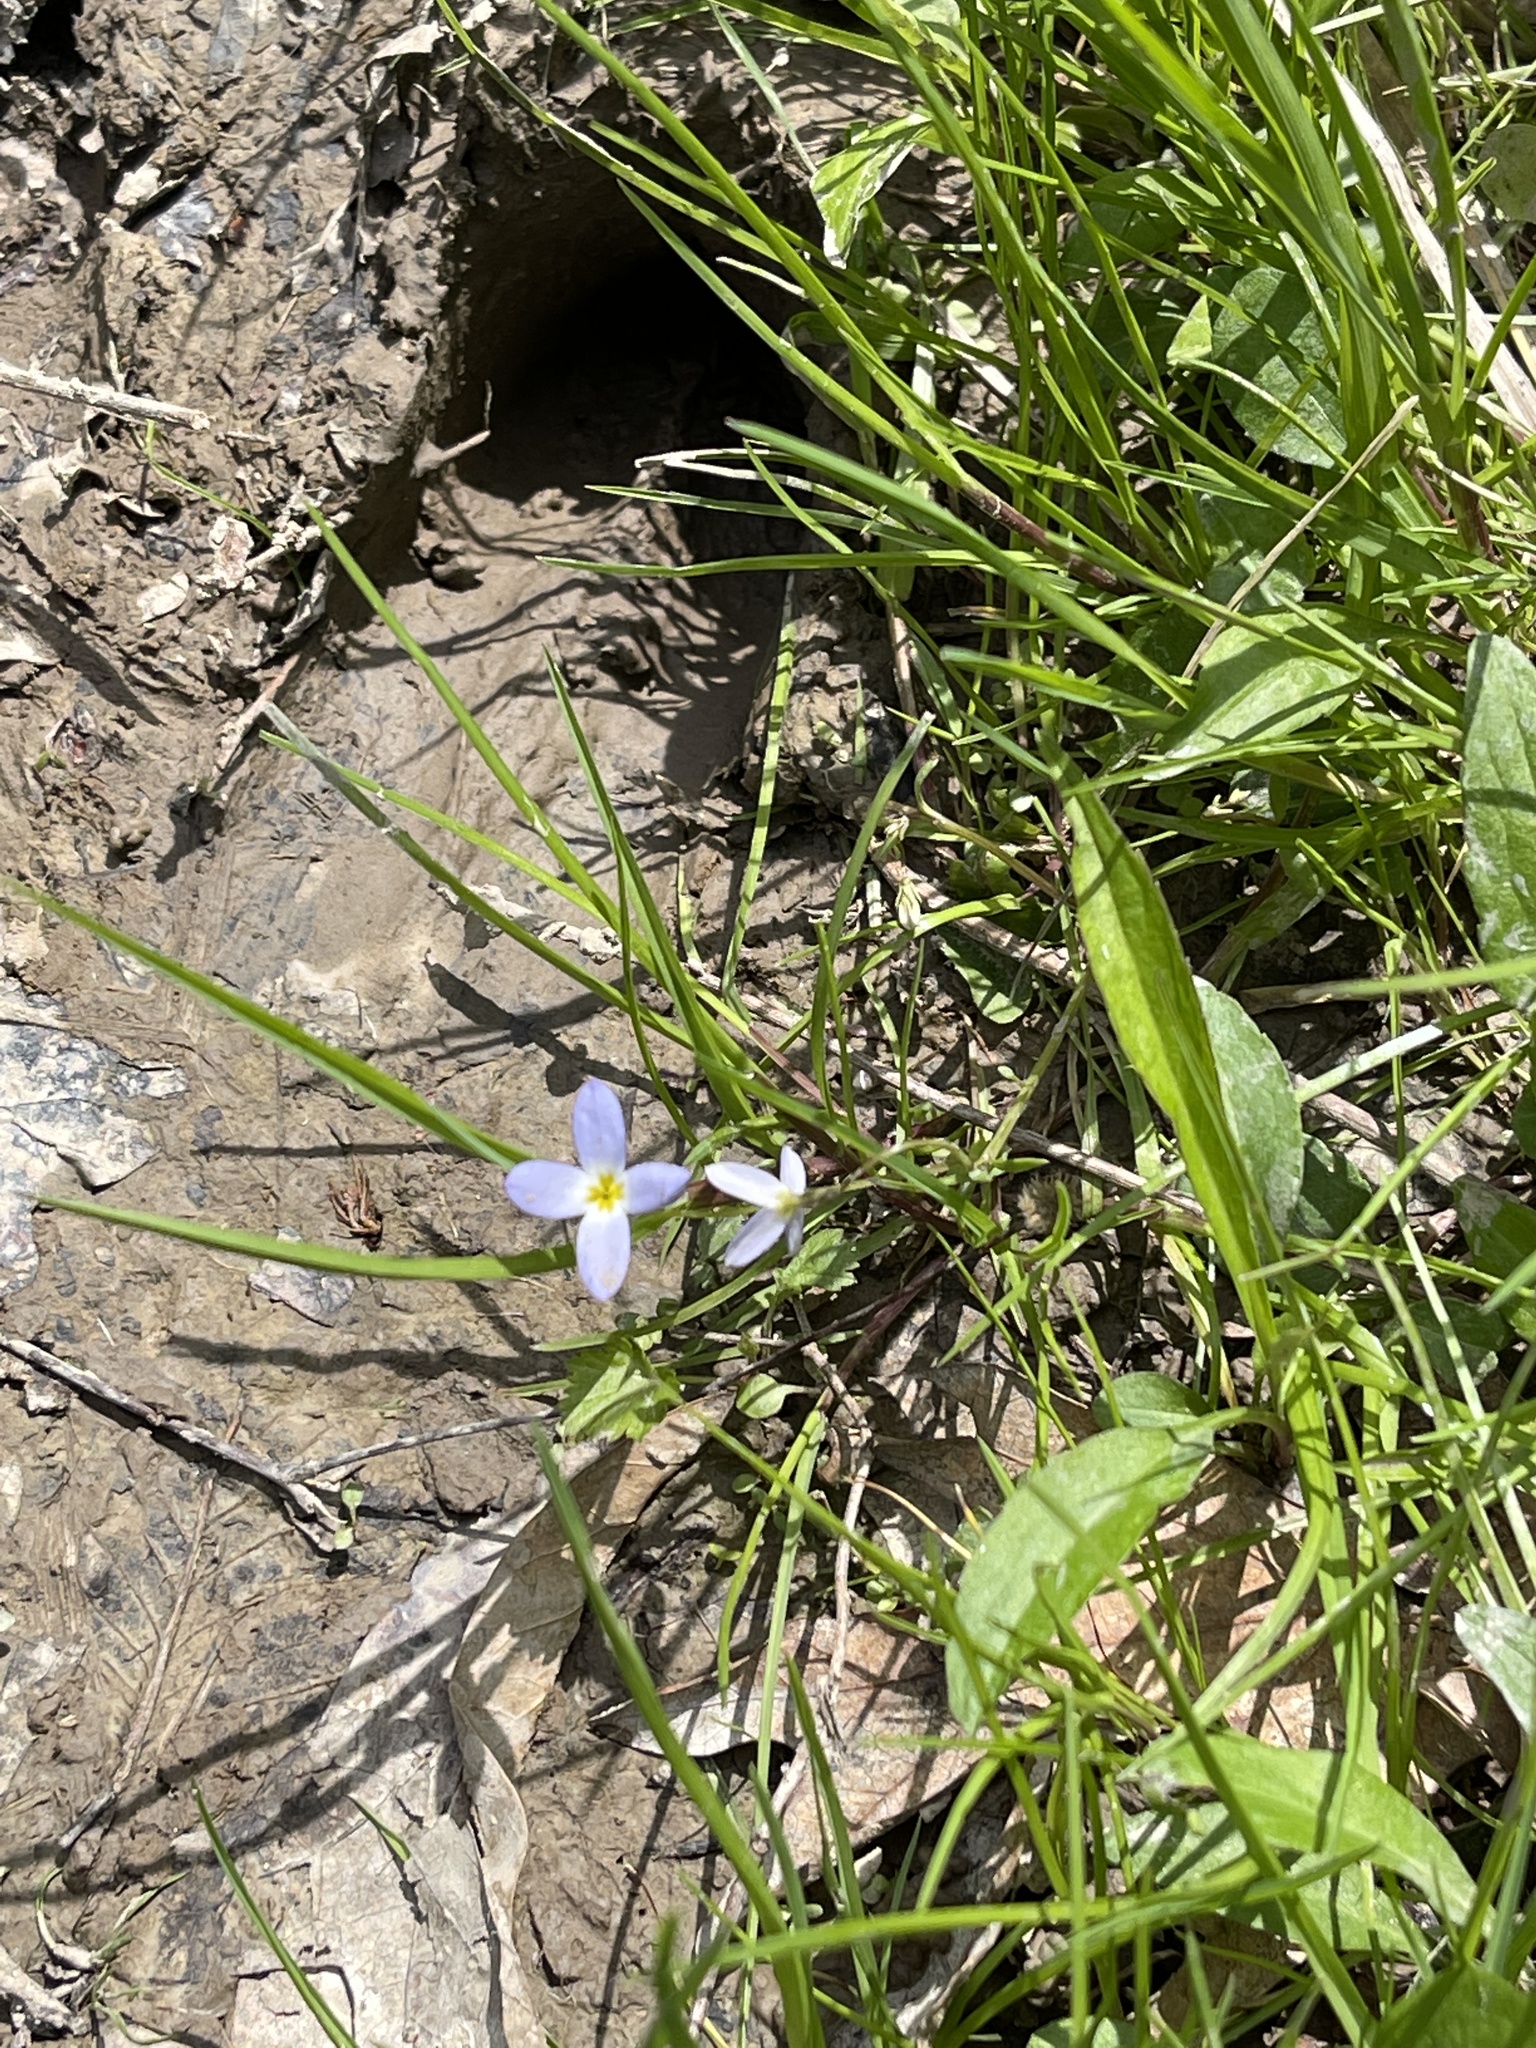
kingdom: Plantae
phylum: Tracheophyta
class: Magnoliopsida
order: Gentianales
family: Rubiaceae
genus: Houstonia
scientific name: Houstonia caerulea
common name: Bluets
